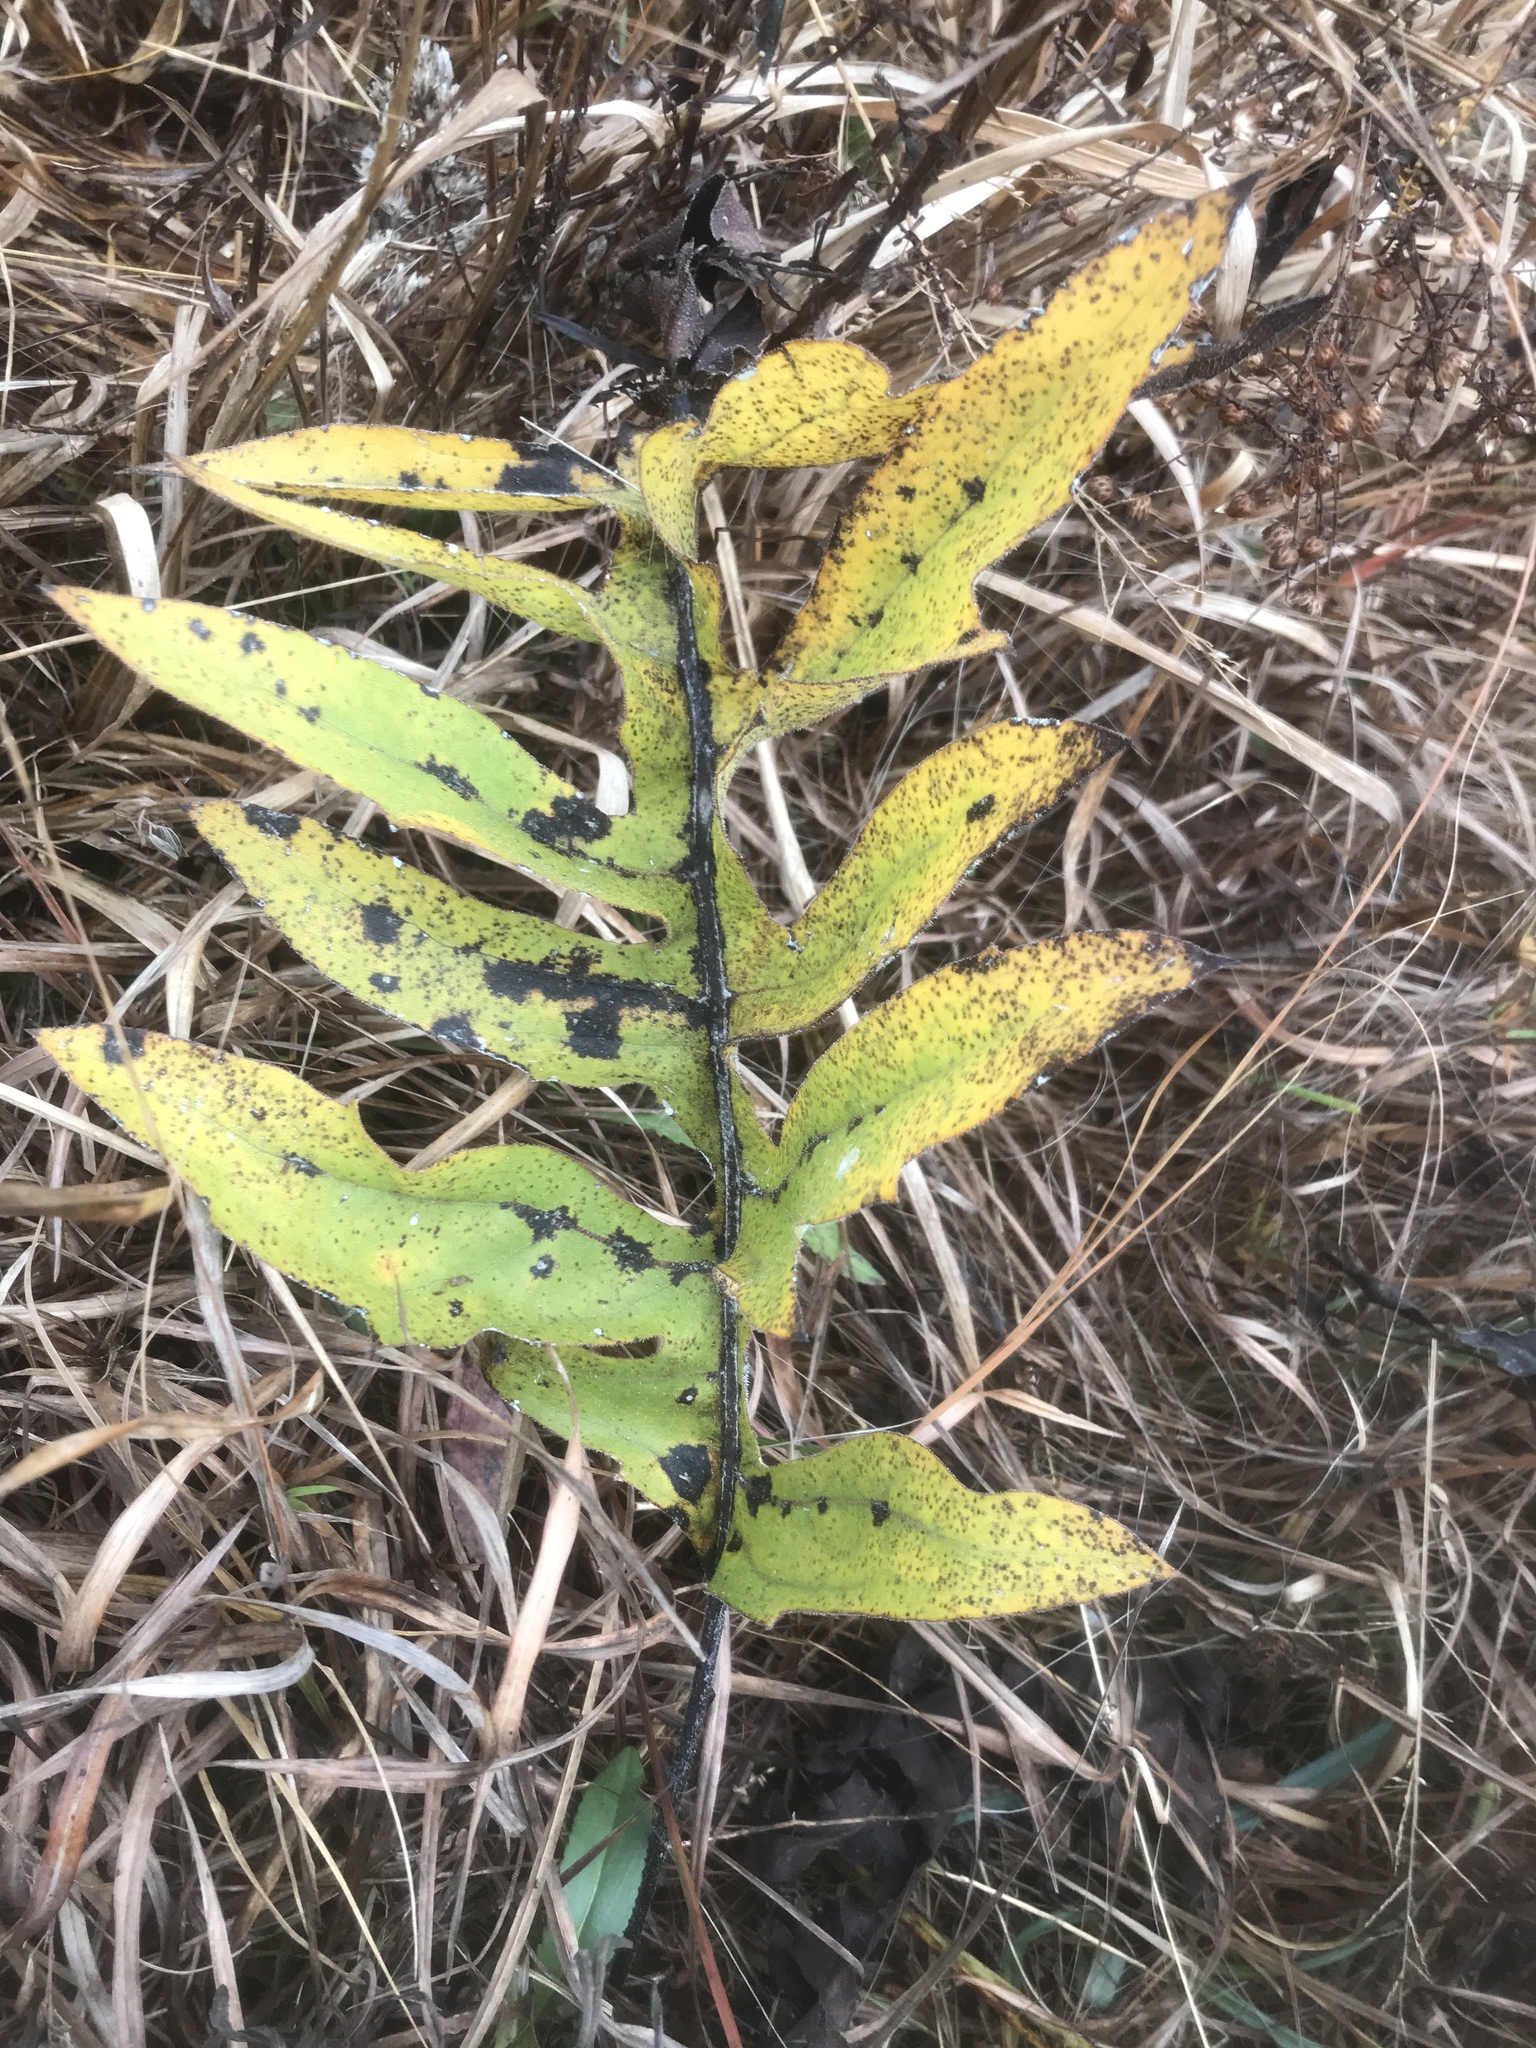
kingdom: Plantae
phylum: Tracheophyta
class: Magnoliopsida
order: Asterales
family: Asteraceae
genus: Silphium
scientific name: Silphium pinnatifidum
